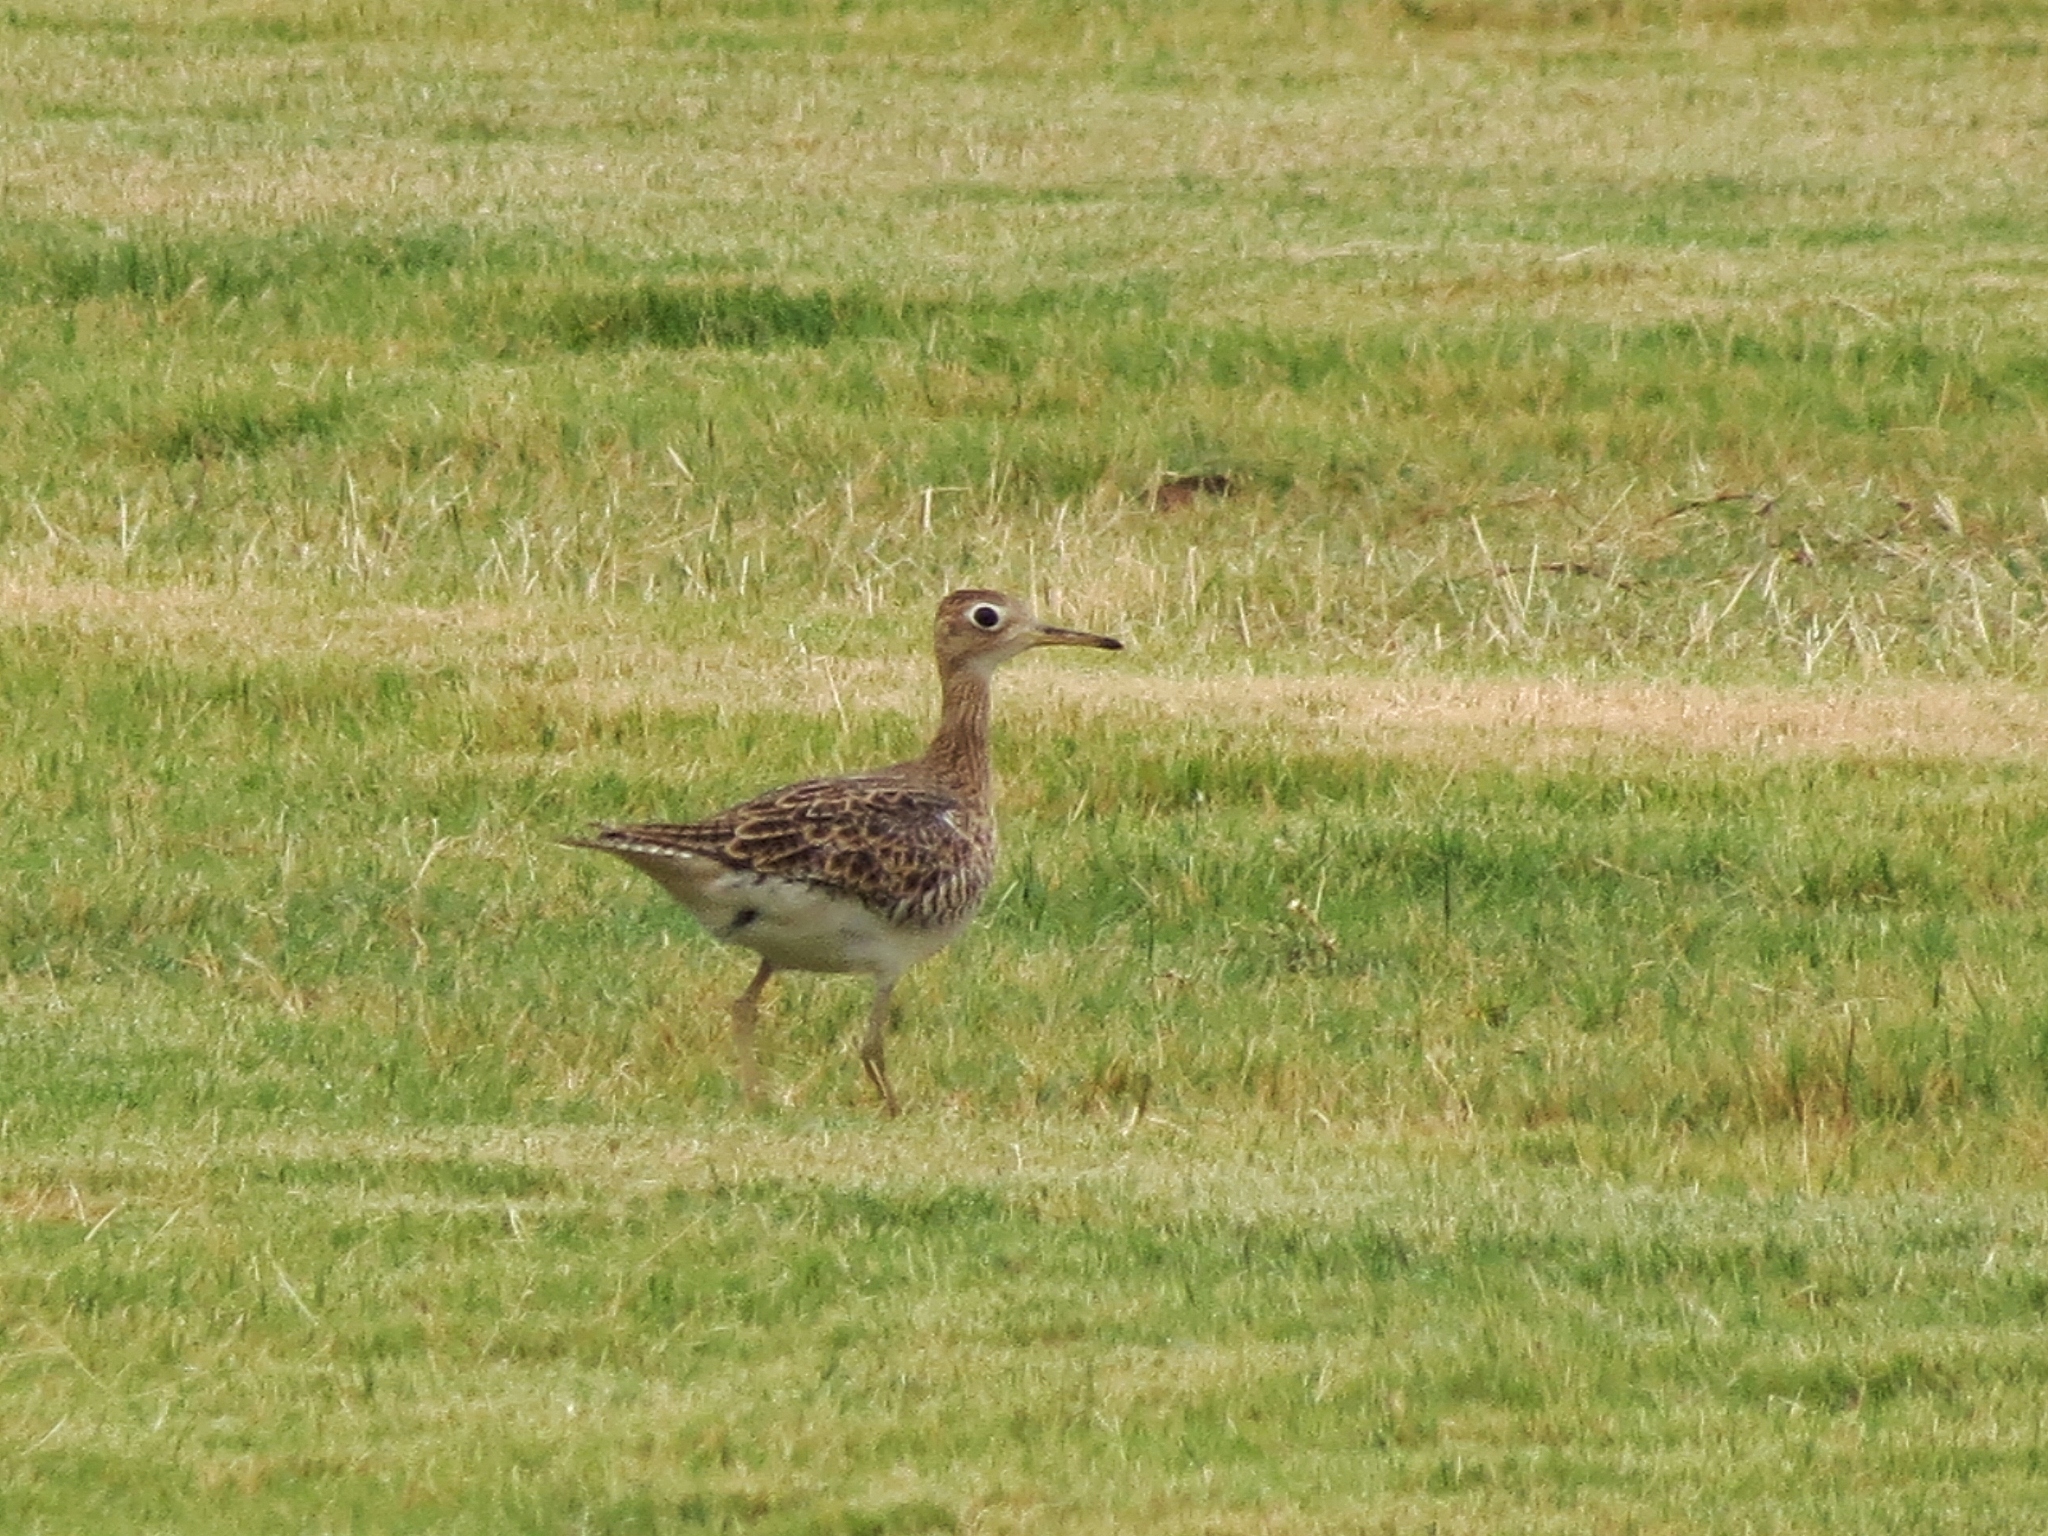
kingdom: Animalia
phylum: Chordata
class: Aves
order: Charadriiformes
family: Scolopacidae
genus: Bartramia
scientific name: Bartramia longicauda
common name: Upland sandpiper
